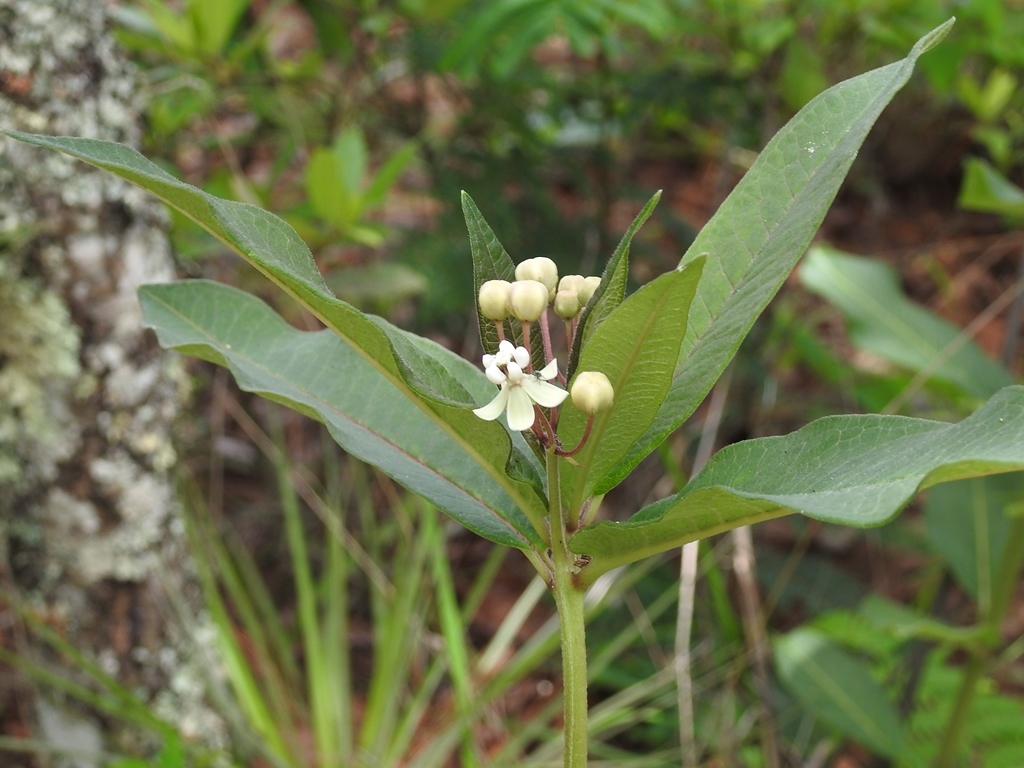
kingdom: Plantae
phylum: Tracheophyta
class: Magnoliopsida
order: Gentianales
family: Apocynaceae
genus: Asclepias
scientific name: Asclepias similis
